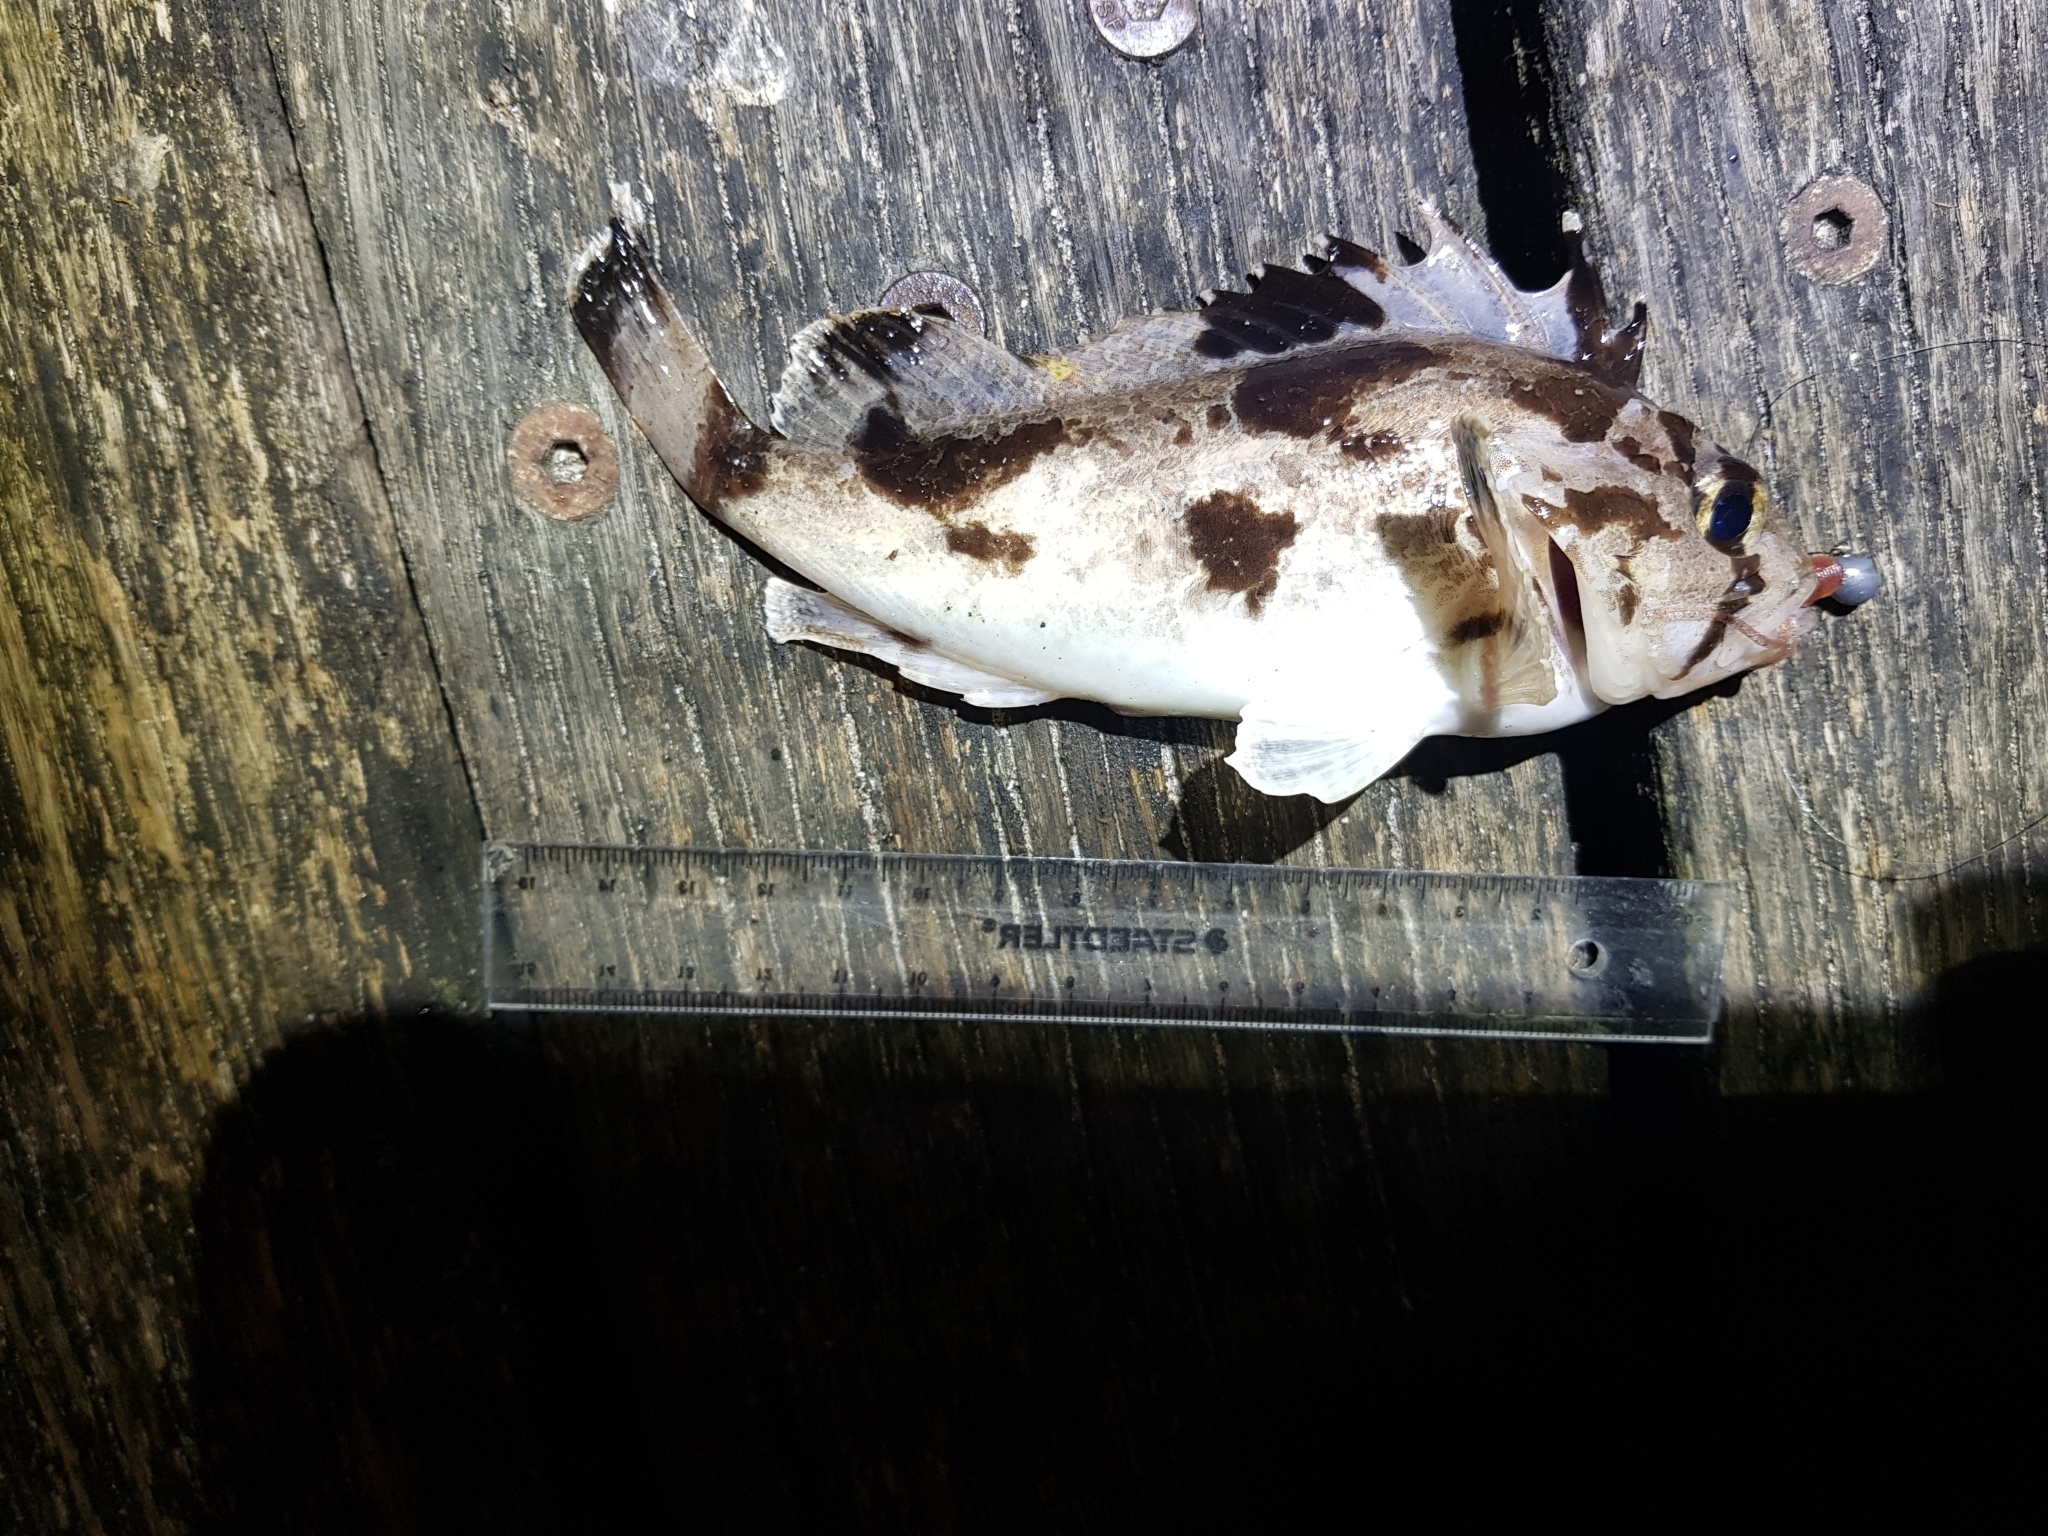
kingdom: Animalia
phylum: Chordata
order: Scorpaeniformes
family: Tetrarogidae
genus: Gymnapistes
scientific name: Gymnapistes marmoratus
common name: South australian cobbler
